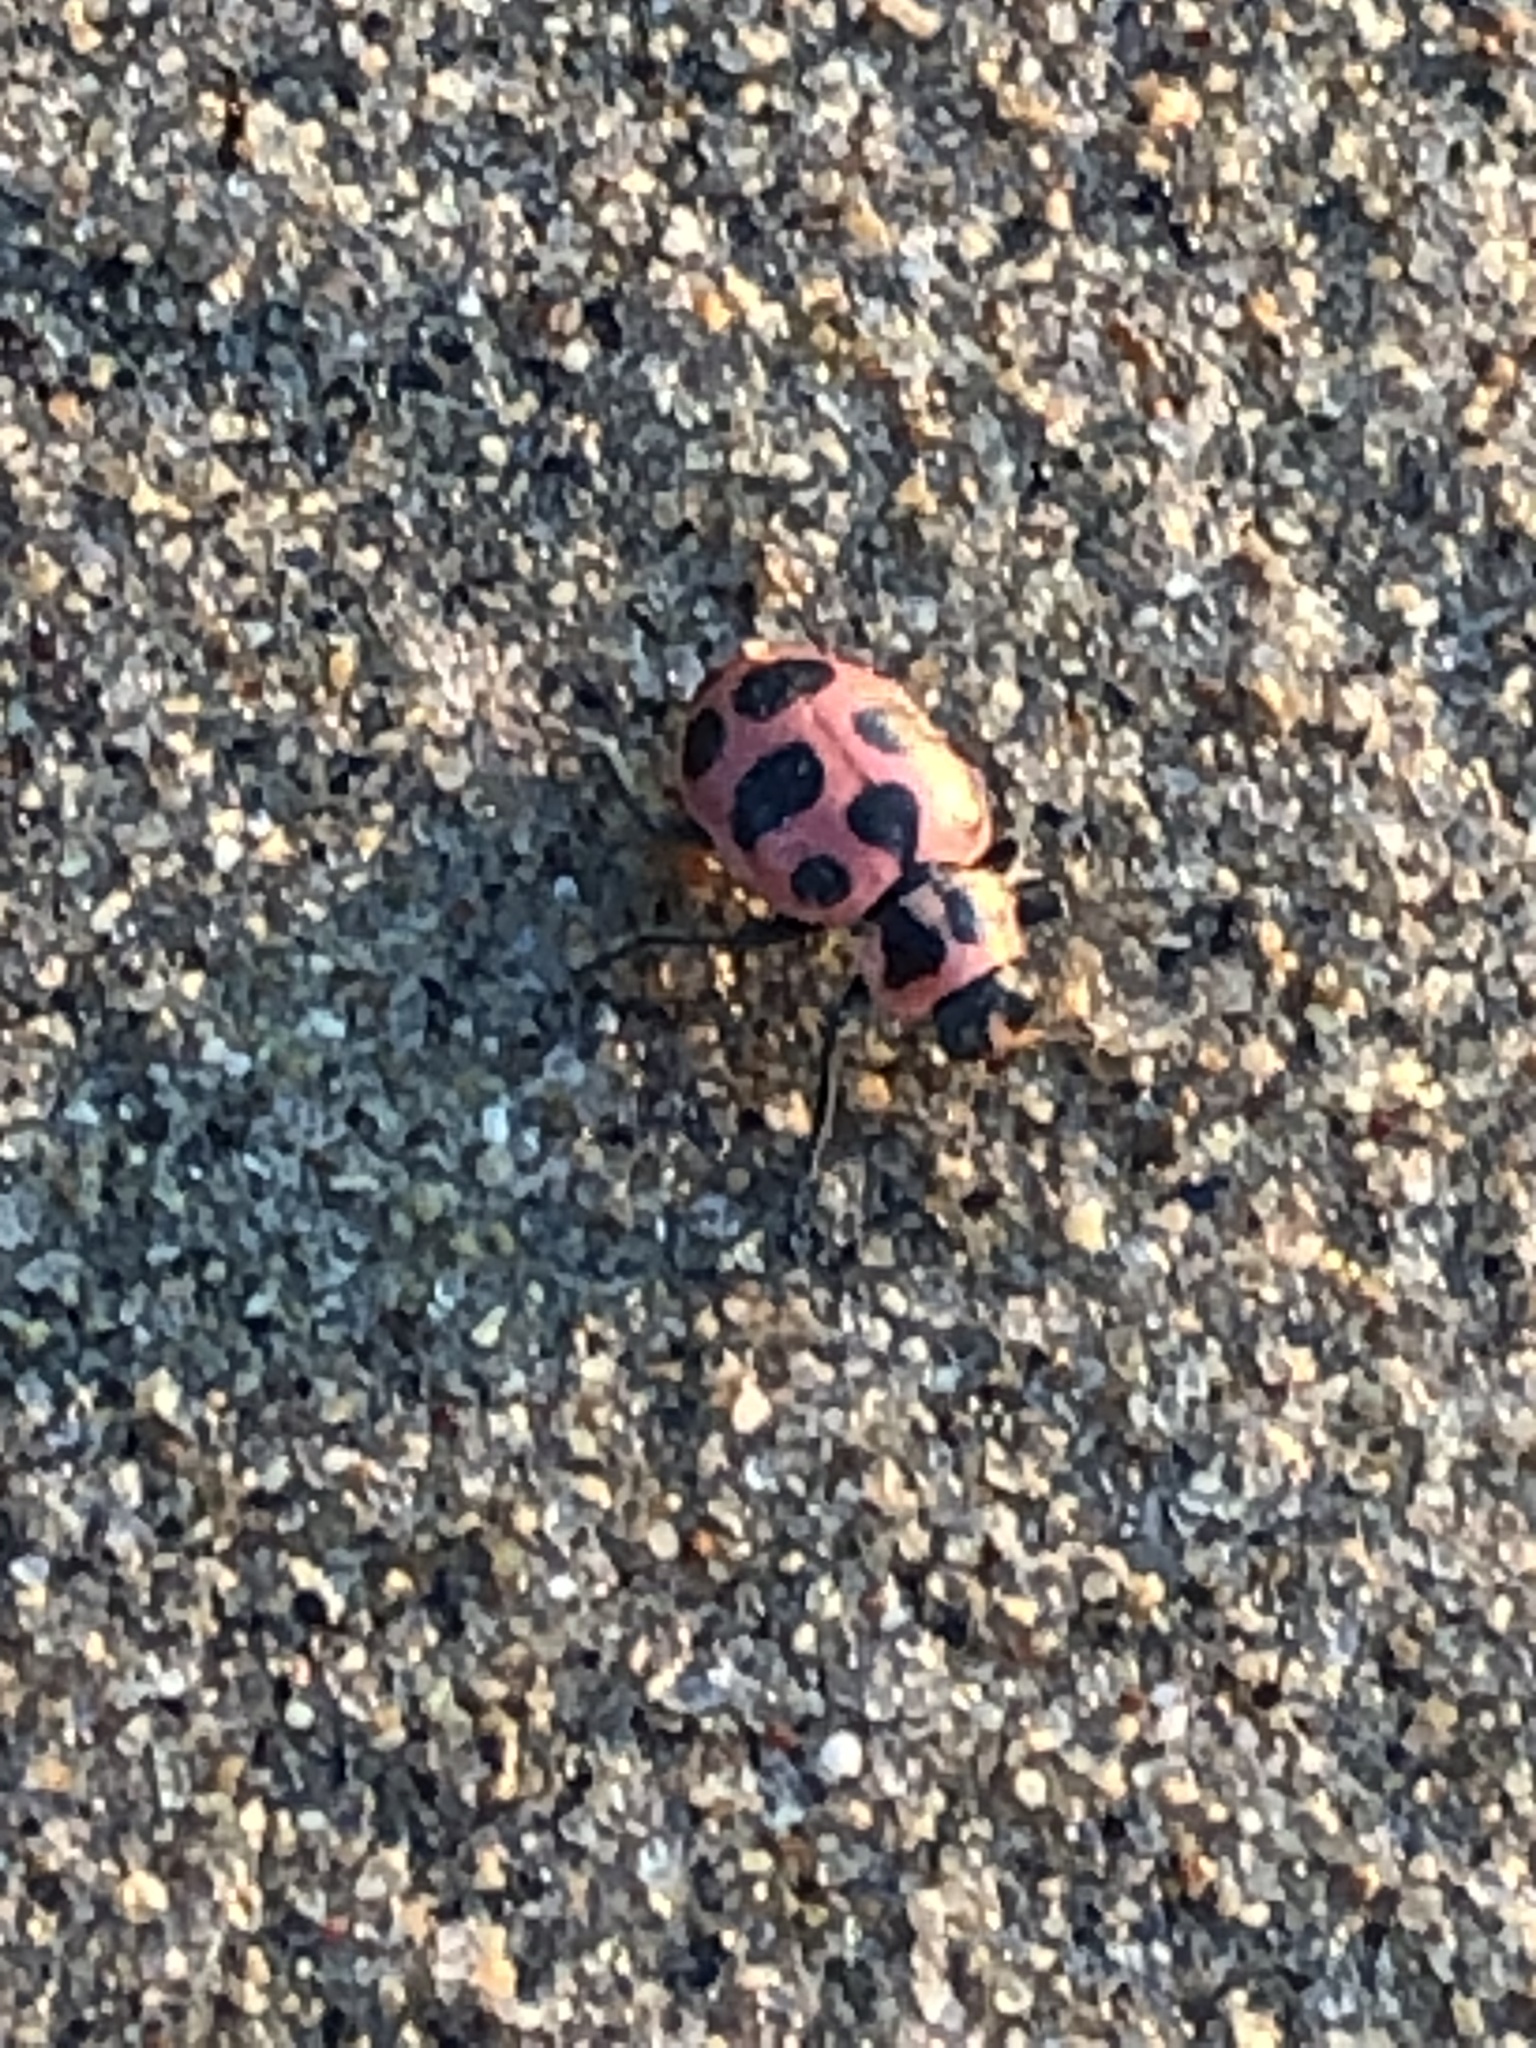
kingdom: Animalia
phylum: Arthropoda
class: Insecta
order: Coleoptera
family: Coccinellidae
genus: Coleomegilla
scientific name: Coleomegilla maculata
